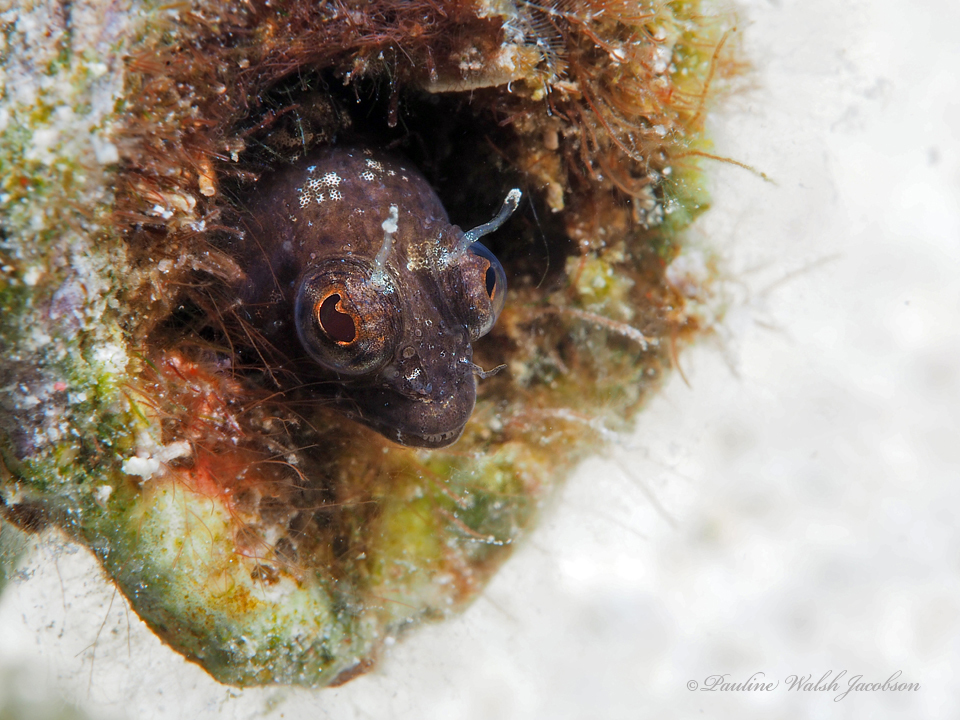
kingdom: Animalia
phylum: Chordata
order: Perciformes
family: Chaenopsidae
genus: Emblemaria
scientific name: Emblemaria pandionis
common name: Sailfin blenny
